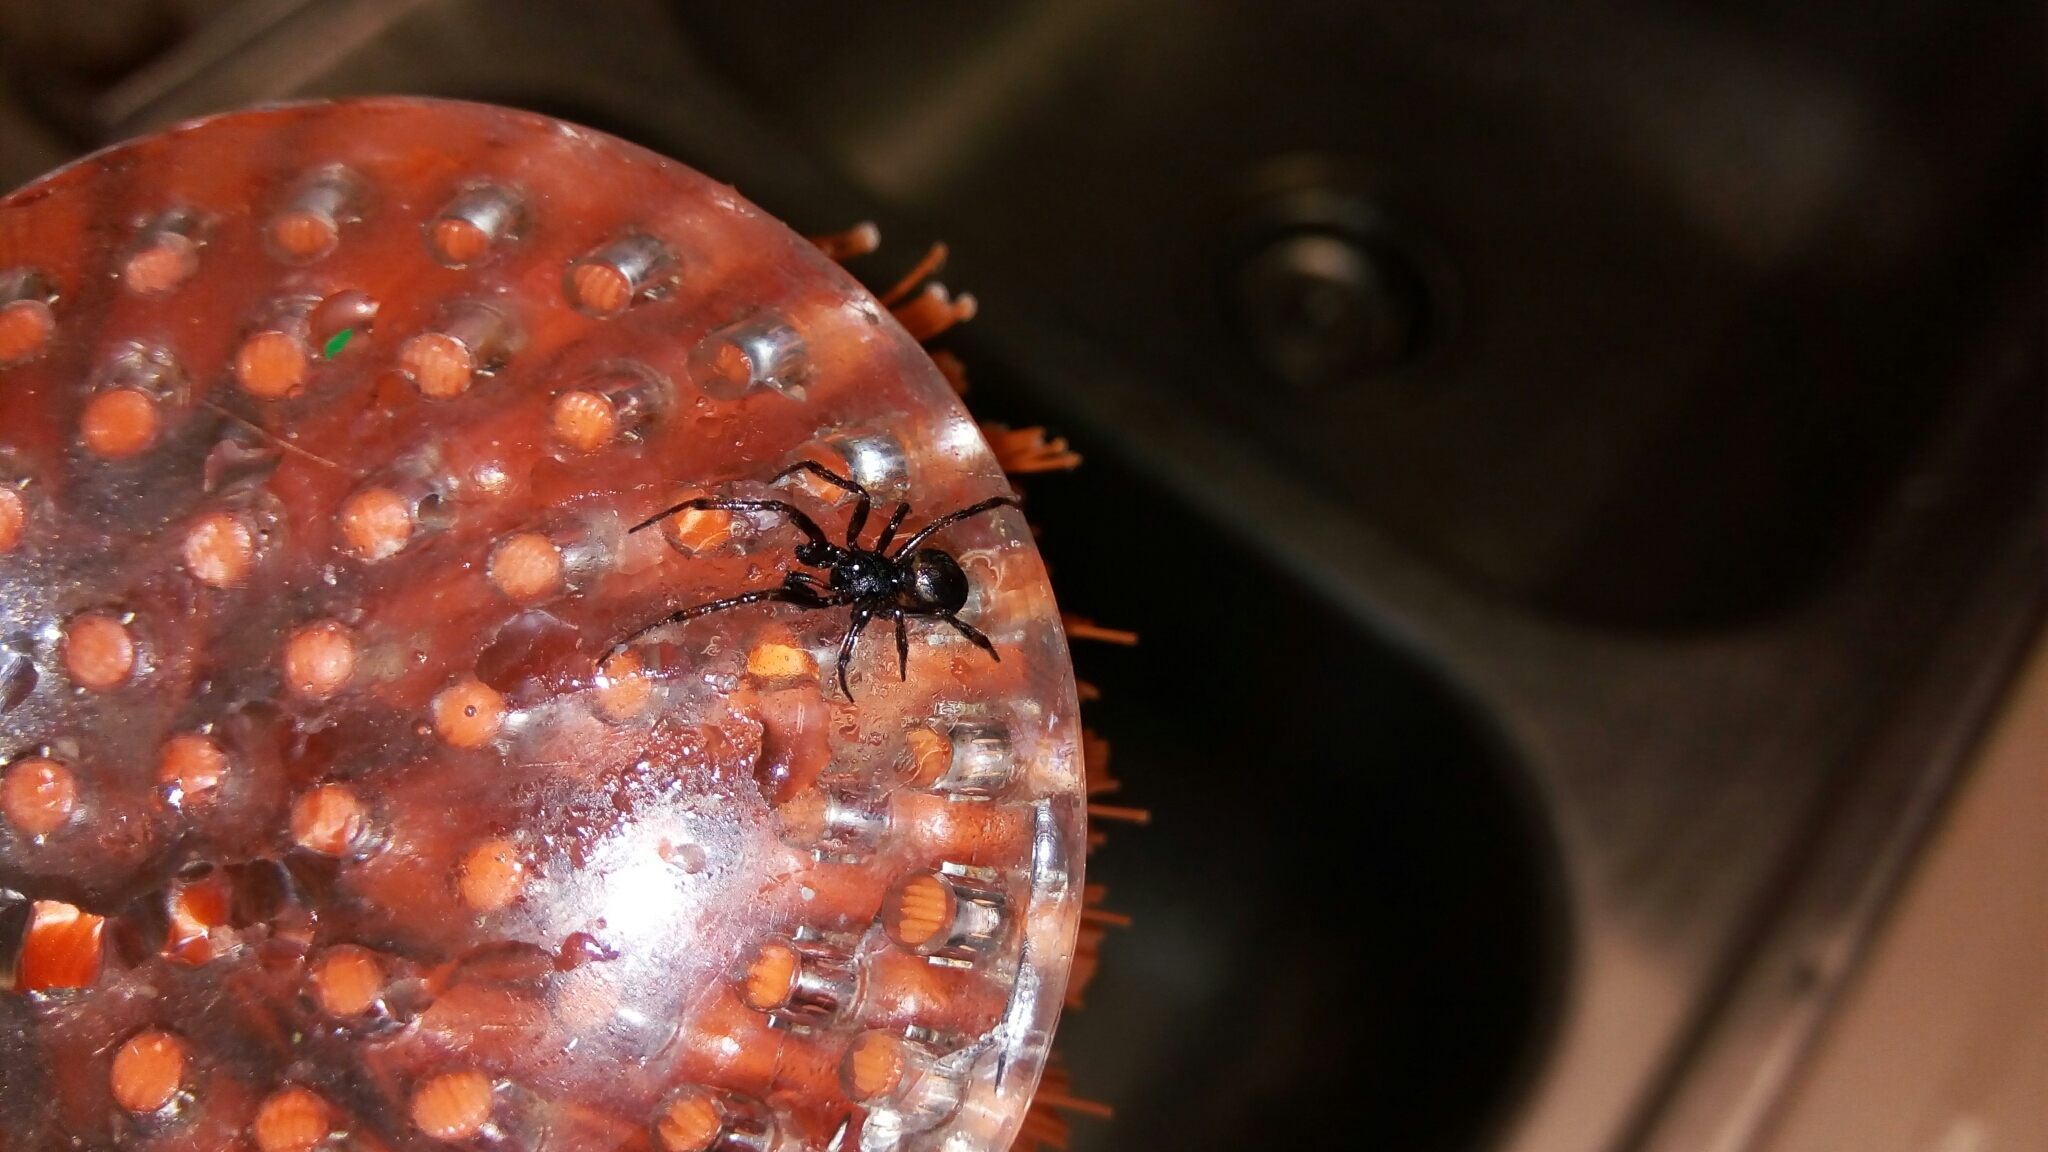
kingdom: Animalia
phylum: Arthropoda
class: Arachnida
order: Araneae
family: Theridiidae
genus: Steatoda
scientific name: Steatoda borealis
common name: Boreal combfoot
